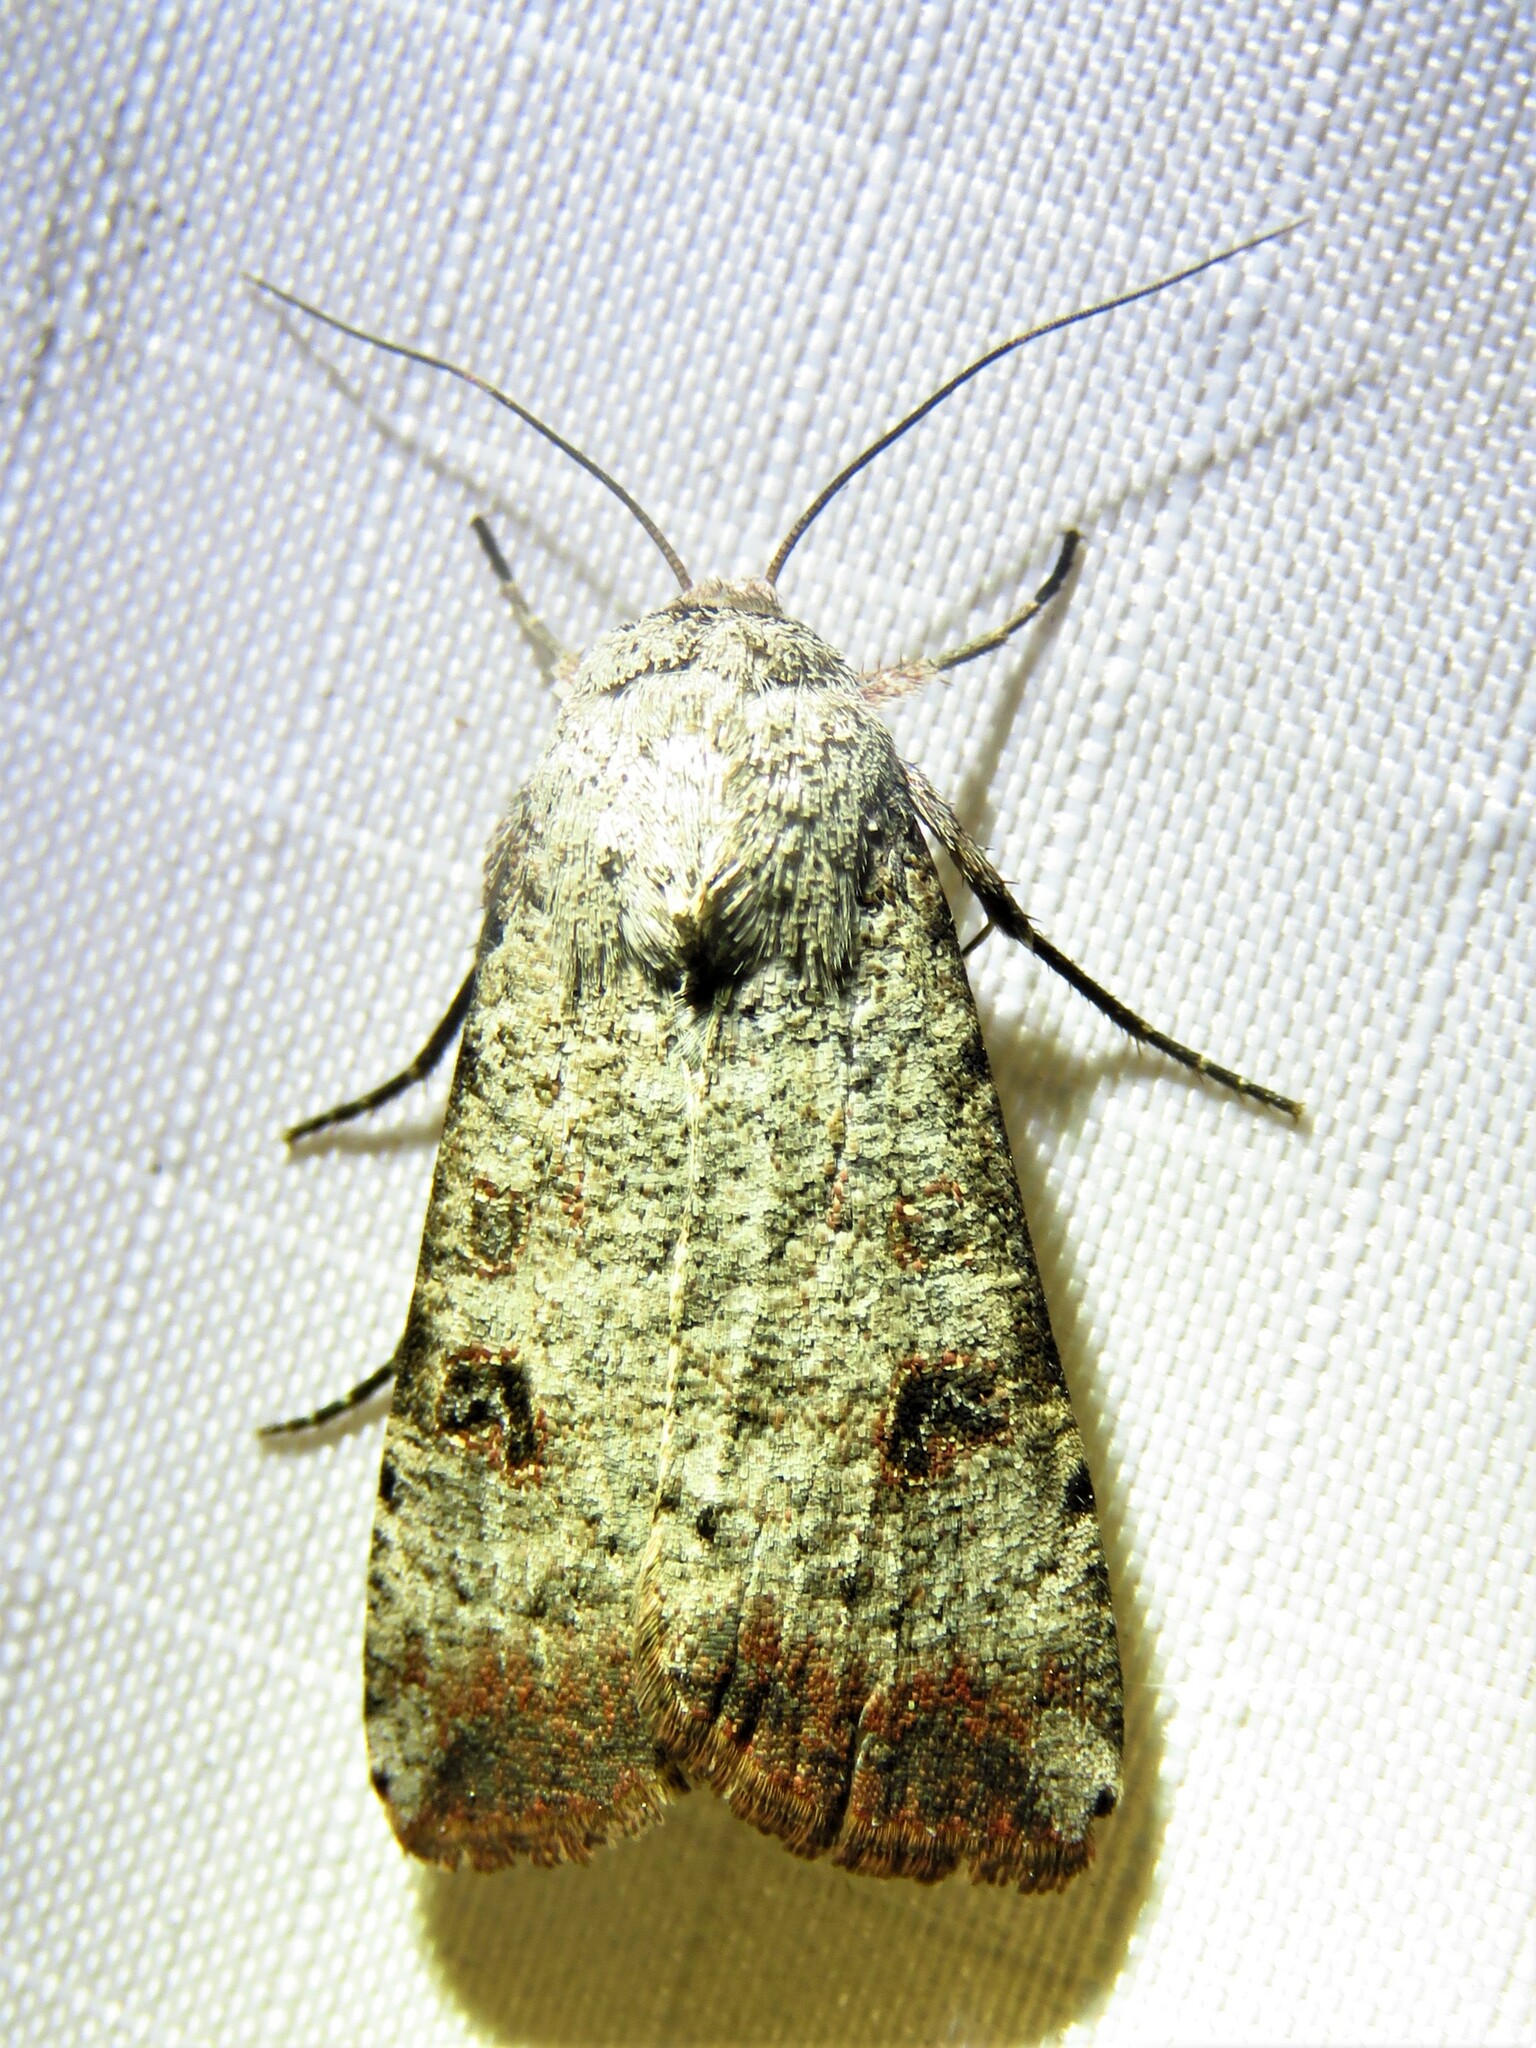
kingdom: Animalia
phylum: Arthropoda
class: Insecta
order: Lepidoptera
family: Noctuidae
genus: Anicla
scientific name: Anicla infecta
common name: Green cutworm
